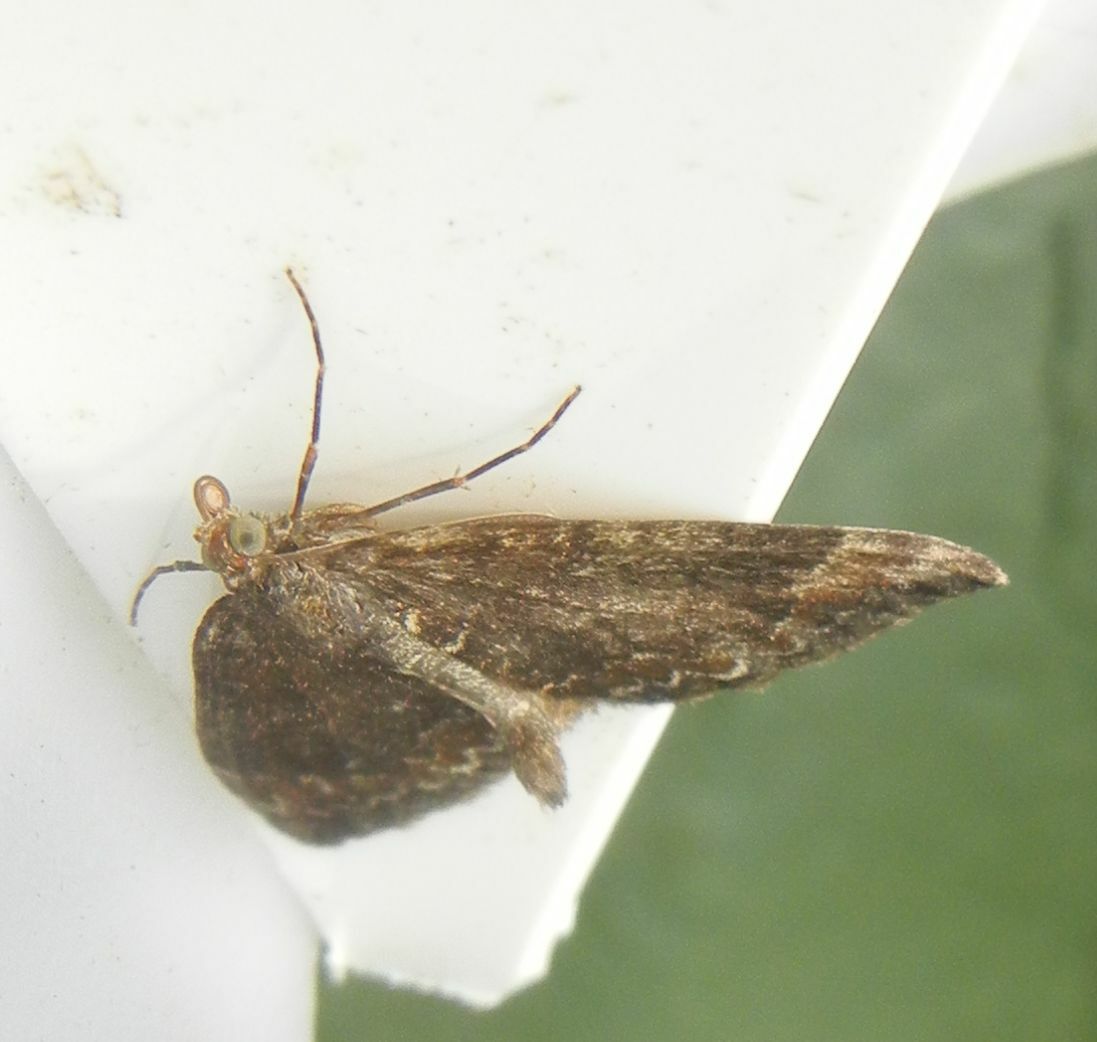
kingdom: Animalia
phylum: Arthropoda
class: Insecta
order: Lepidoptera
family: Geometridae
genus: Dysstroma
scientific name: Dysstroma truncata
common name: Common marbled carpet
